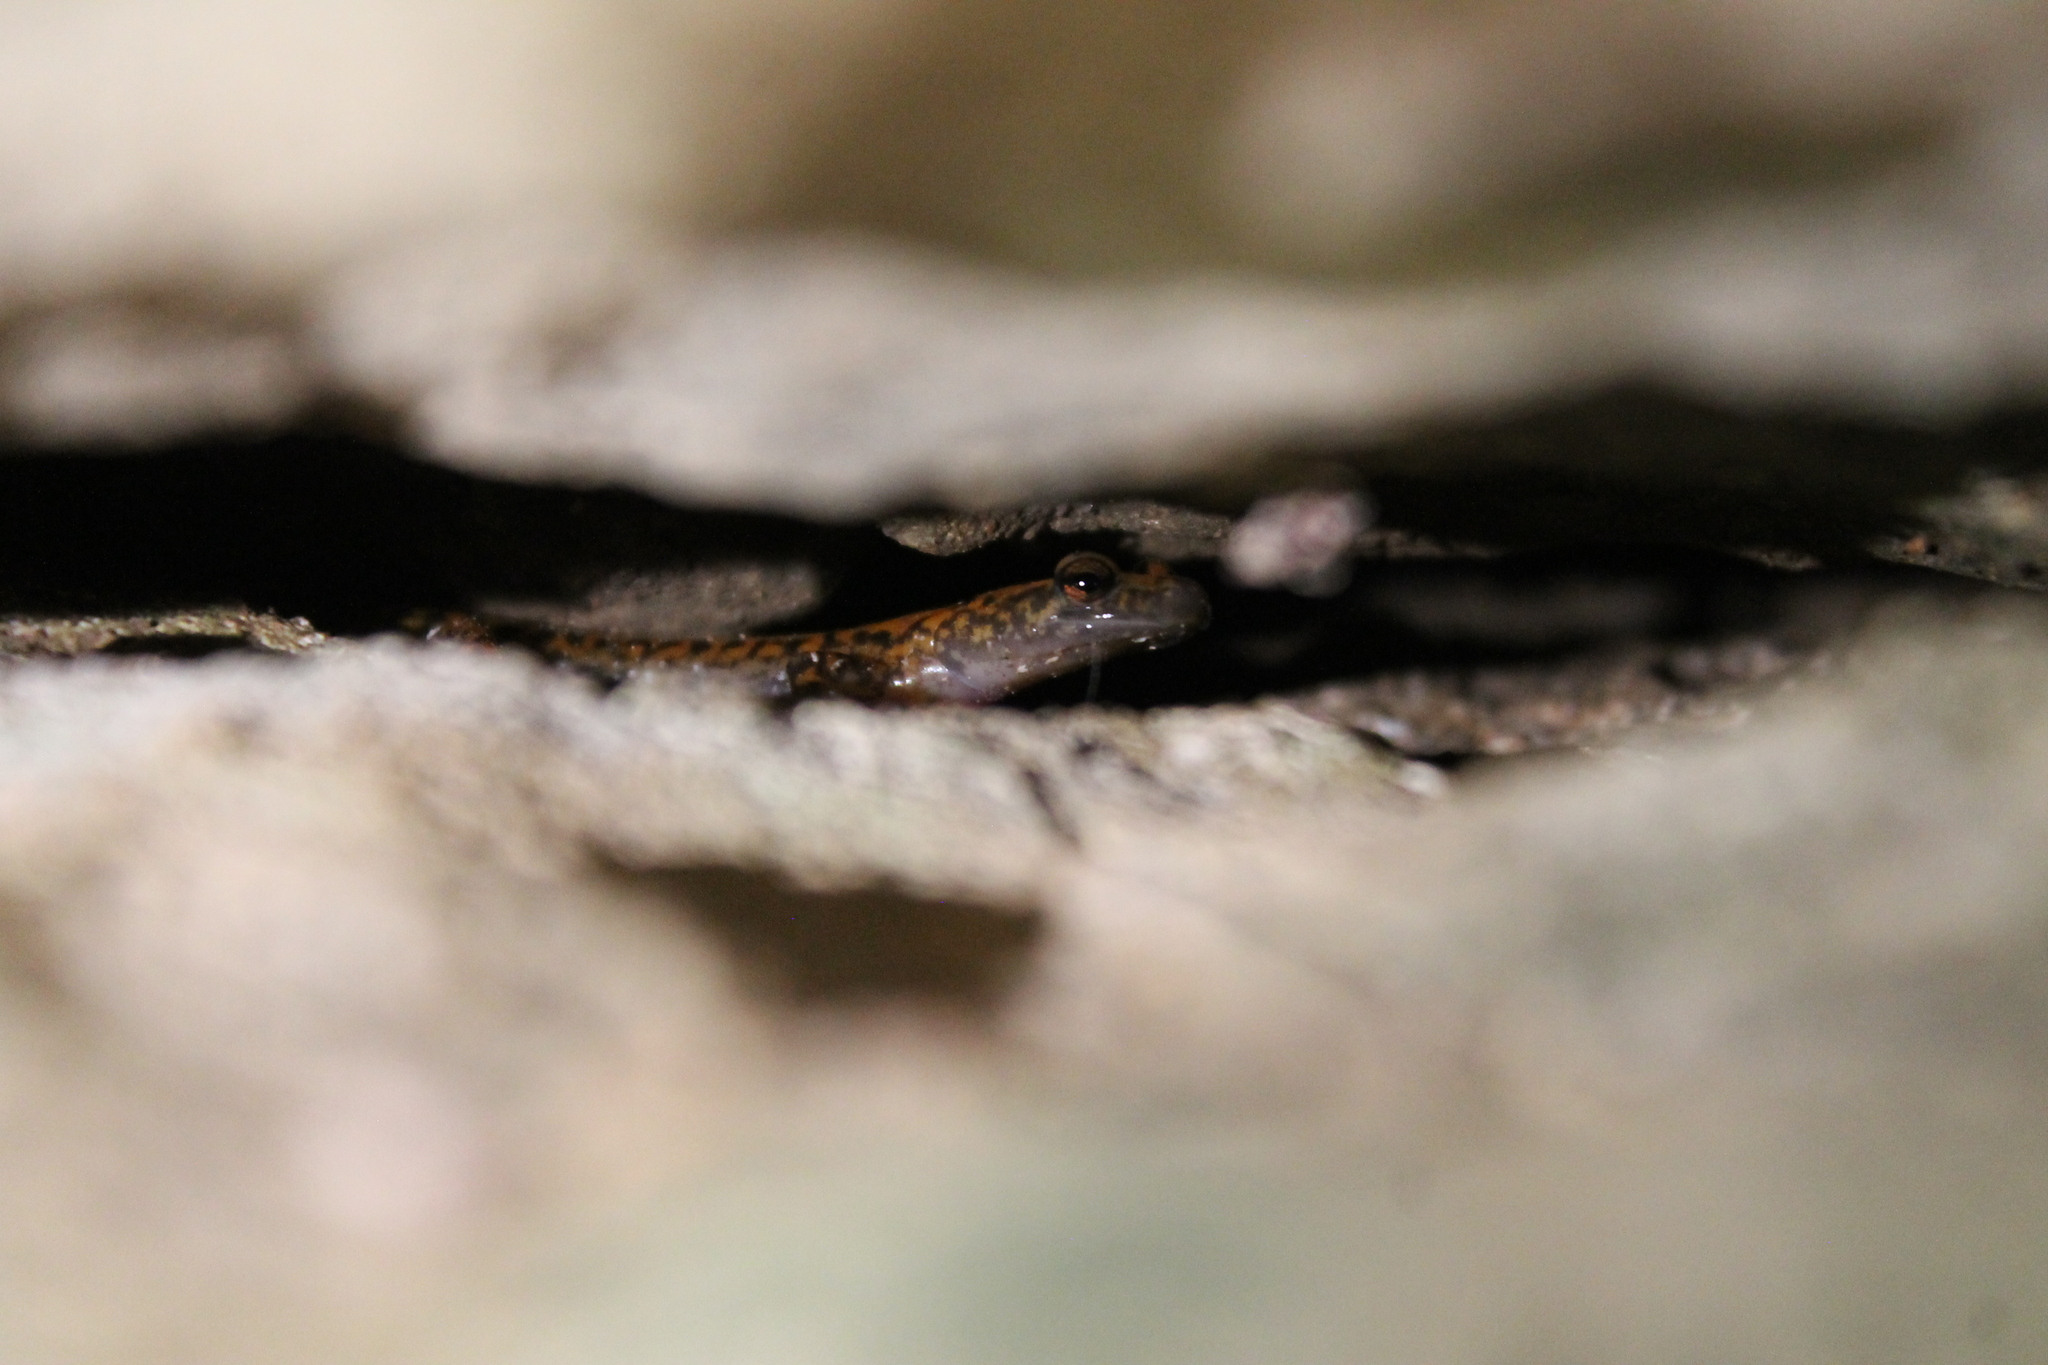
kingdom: Animalia
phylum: Chordata
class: Amphibia
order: Caudata
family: Plethodontidae
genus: Eurycea
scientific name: Eurycea lucifuga
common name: Cave salamander
